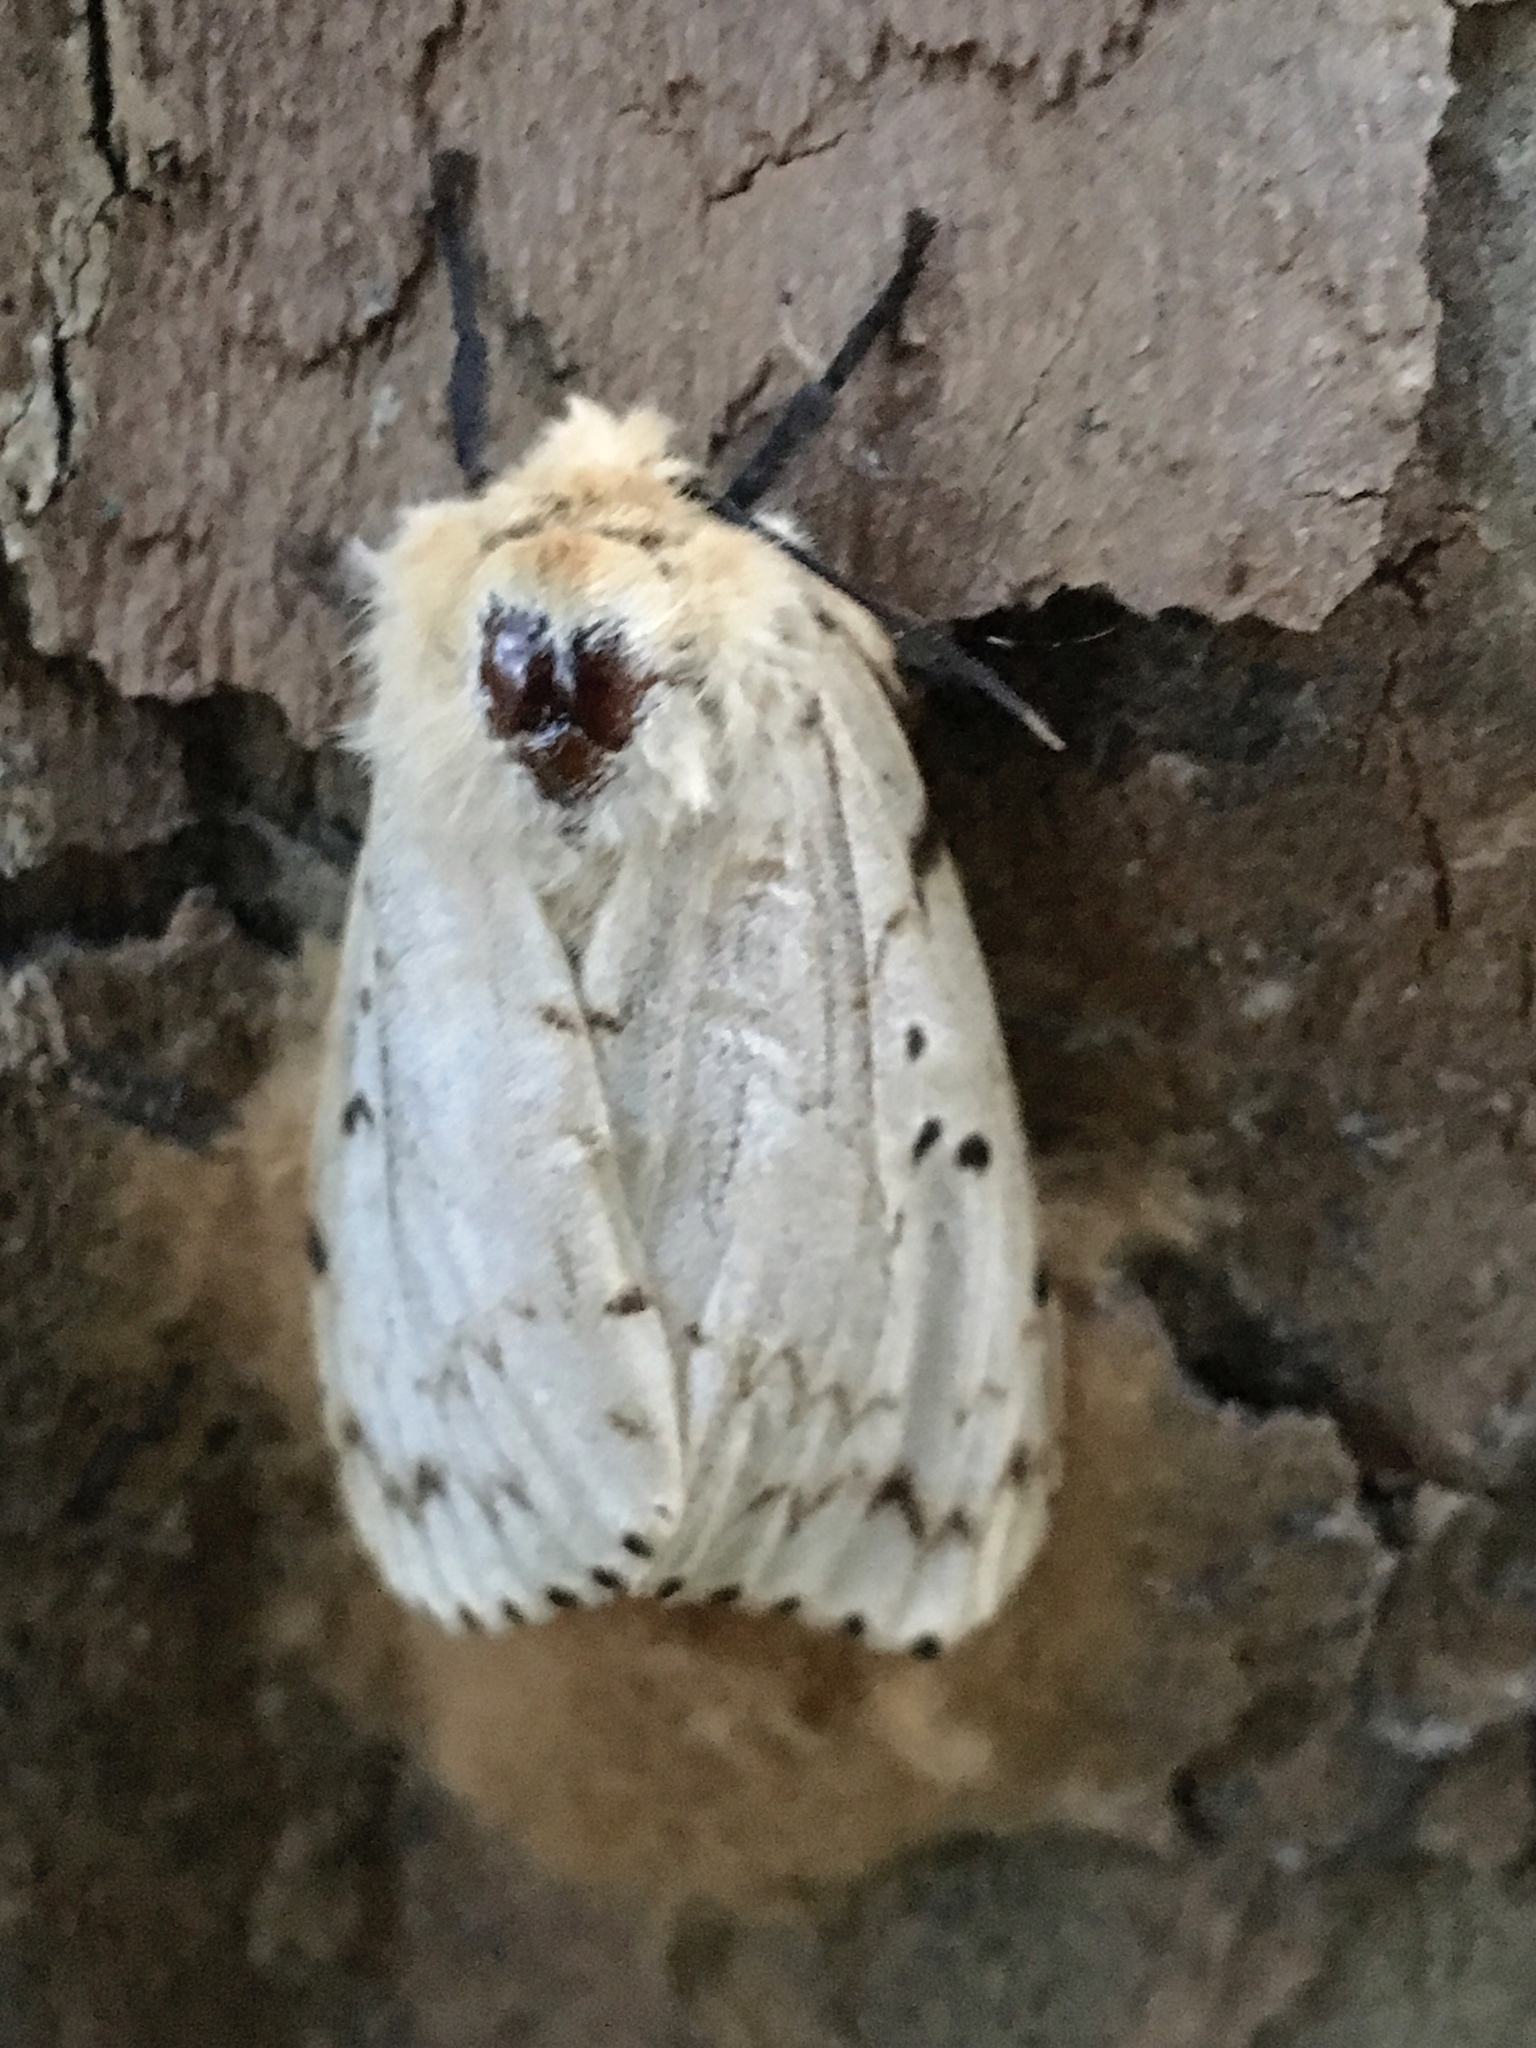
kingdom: Animalia
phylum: Arthropoda
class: Insecta
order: Lepidoptera
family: Erebidae
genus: Lymantria
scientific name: Lymantria dispar
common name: Gypsy moth
